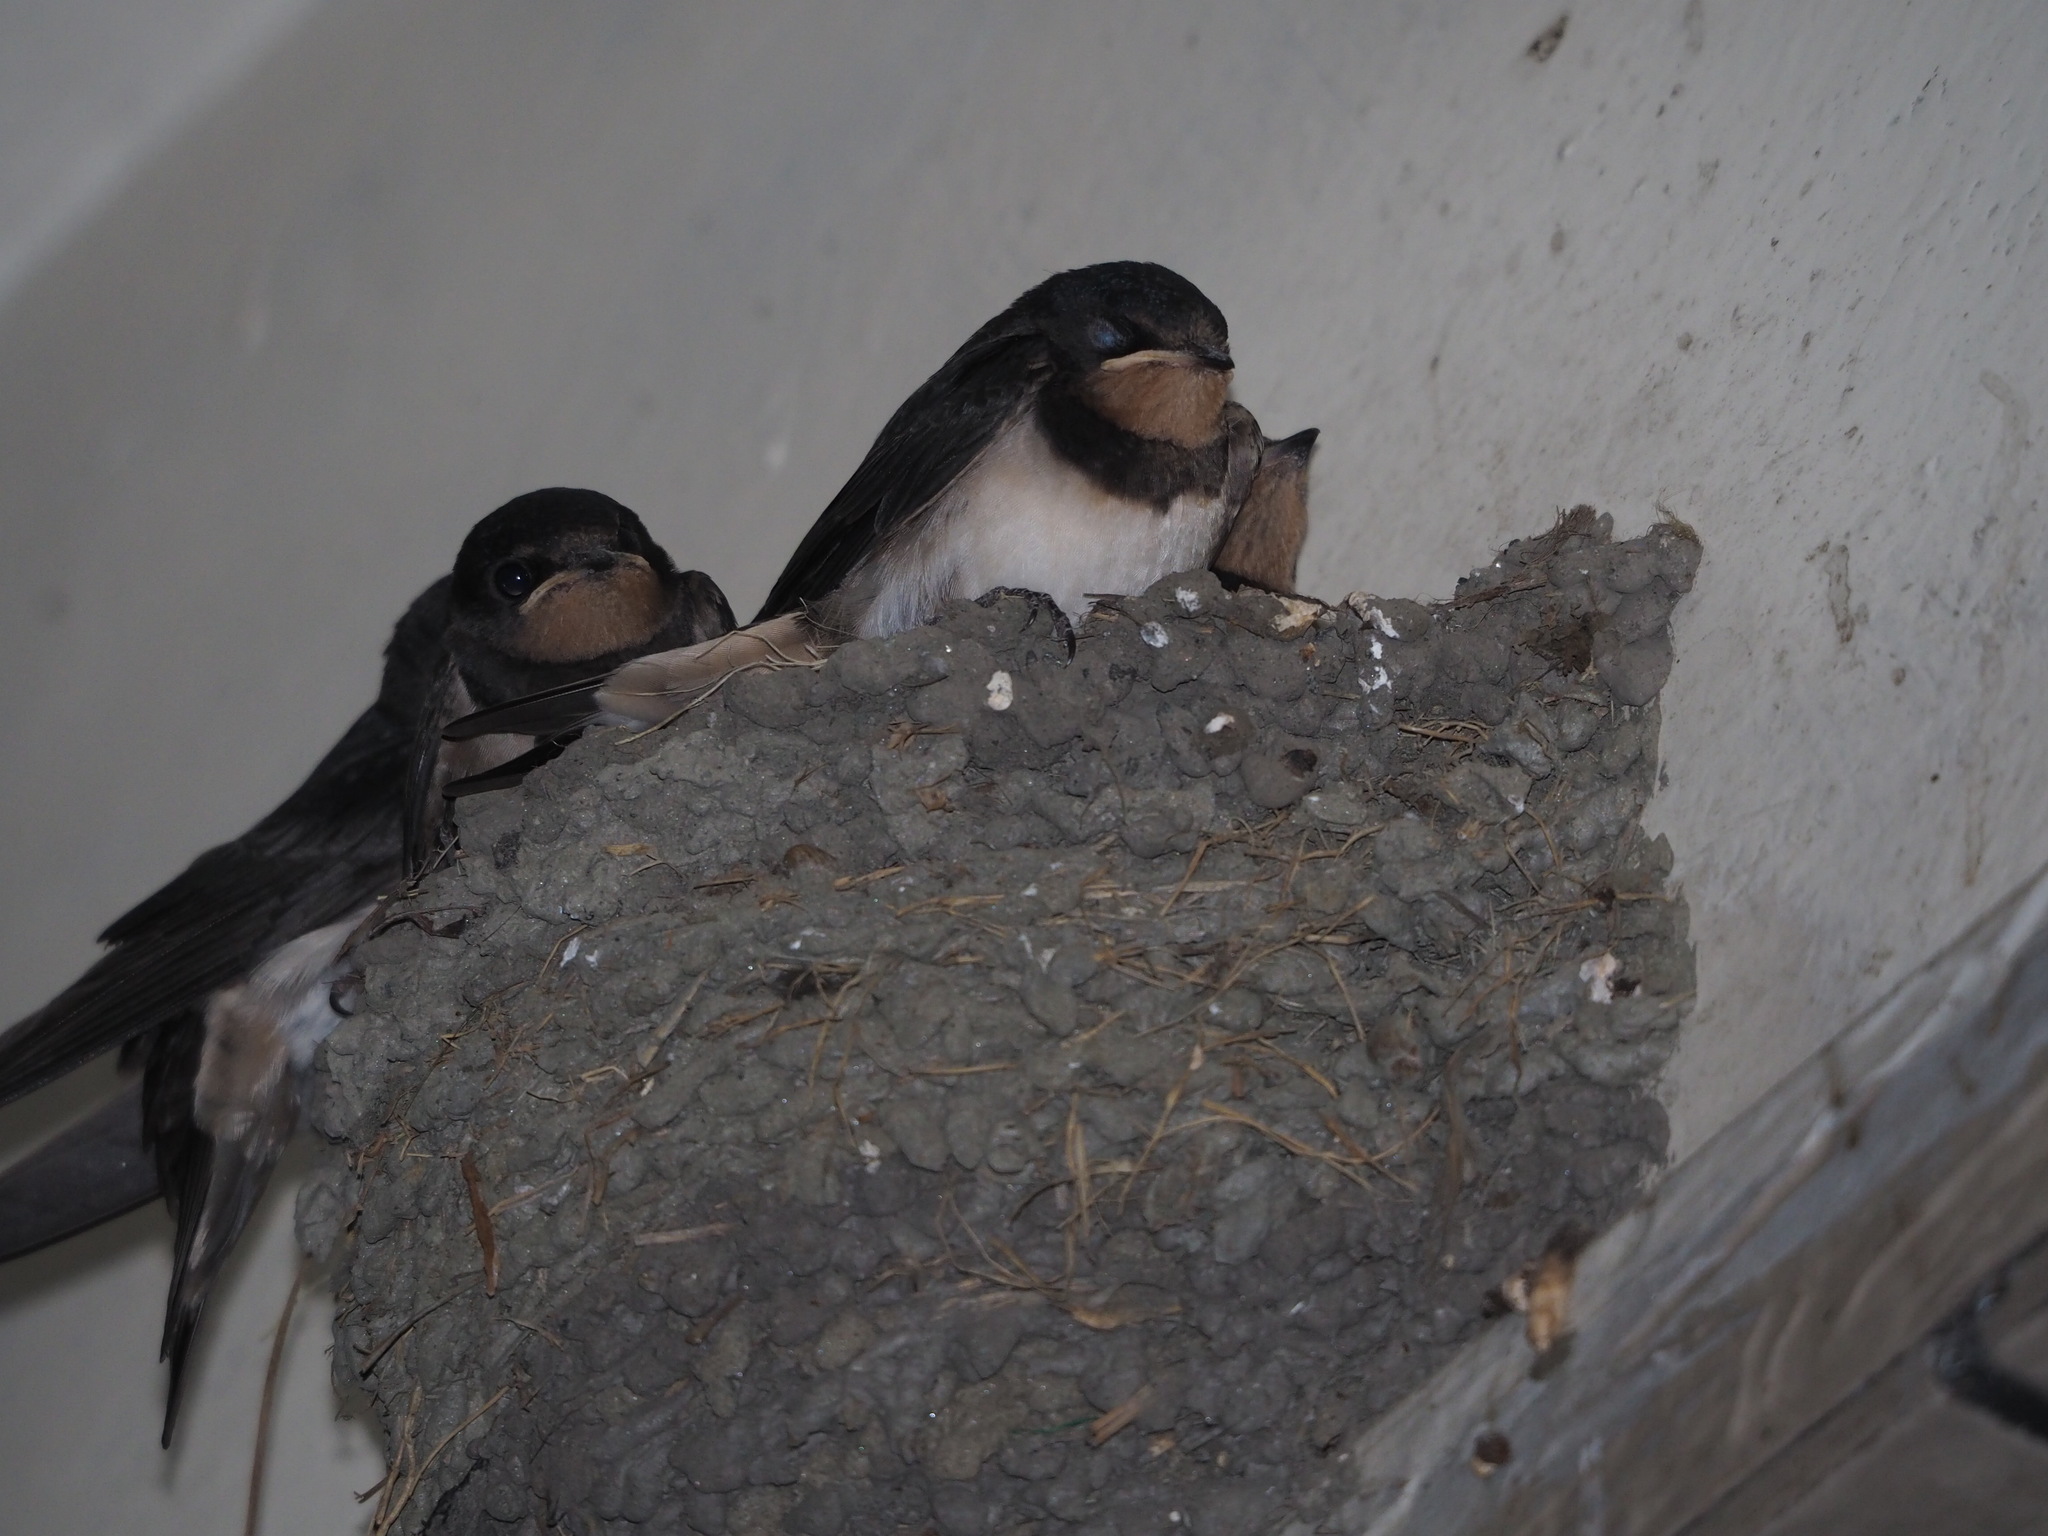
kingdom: Animalia
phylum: Chordata
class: Aves
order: Passeriformes
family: Hirundinidae
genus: Hirundo
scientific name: Hirundo rustica
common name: Barn swallow
